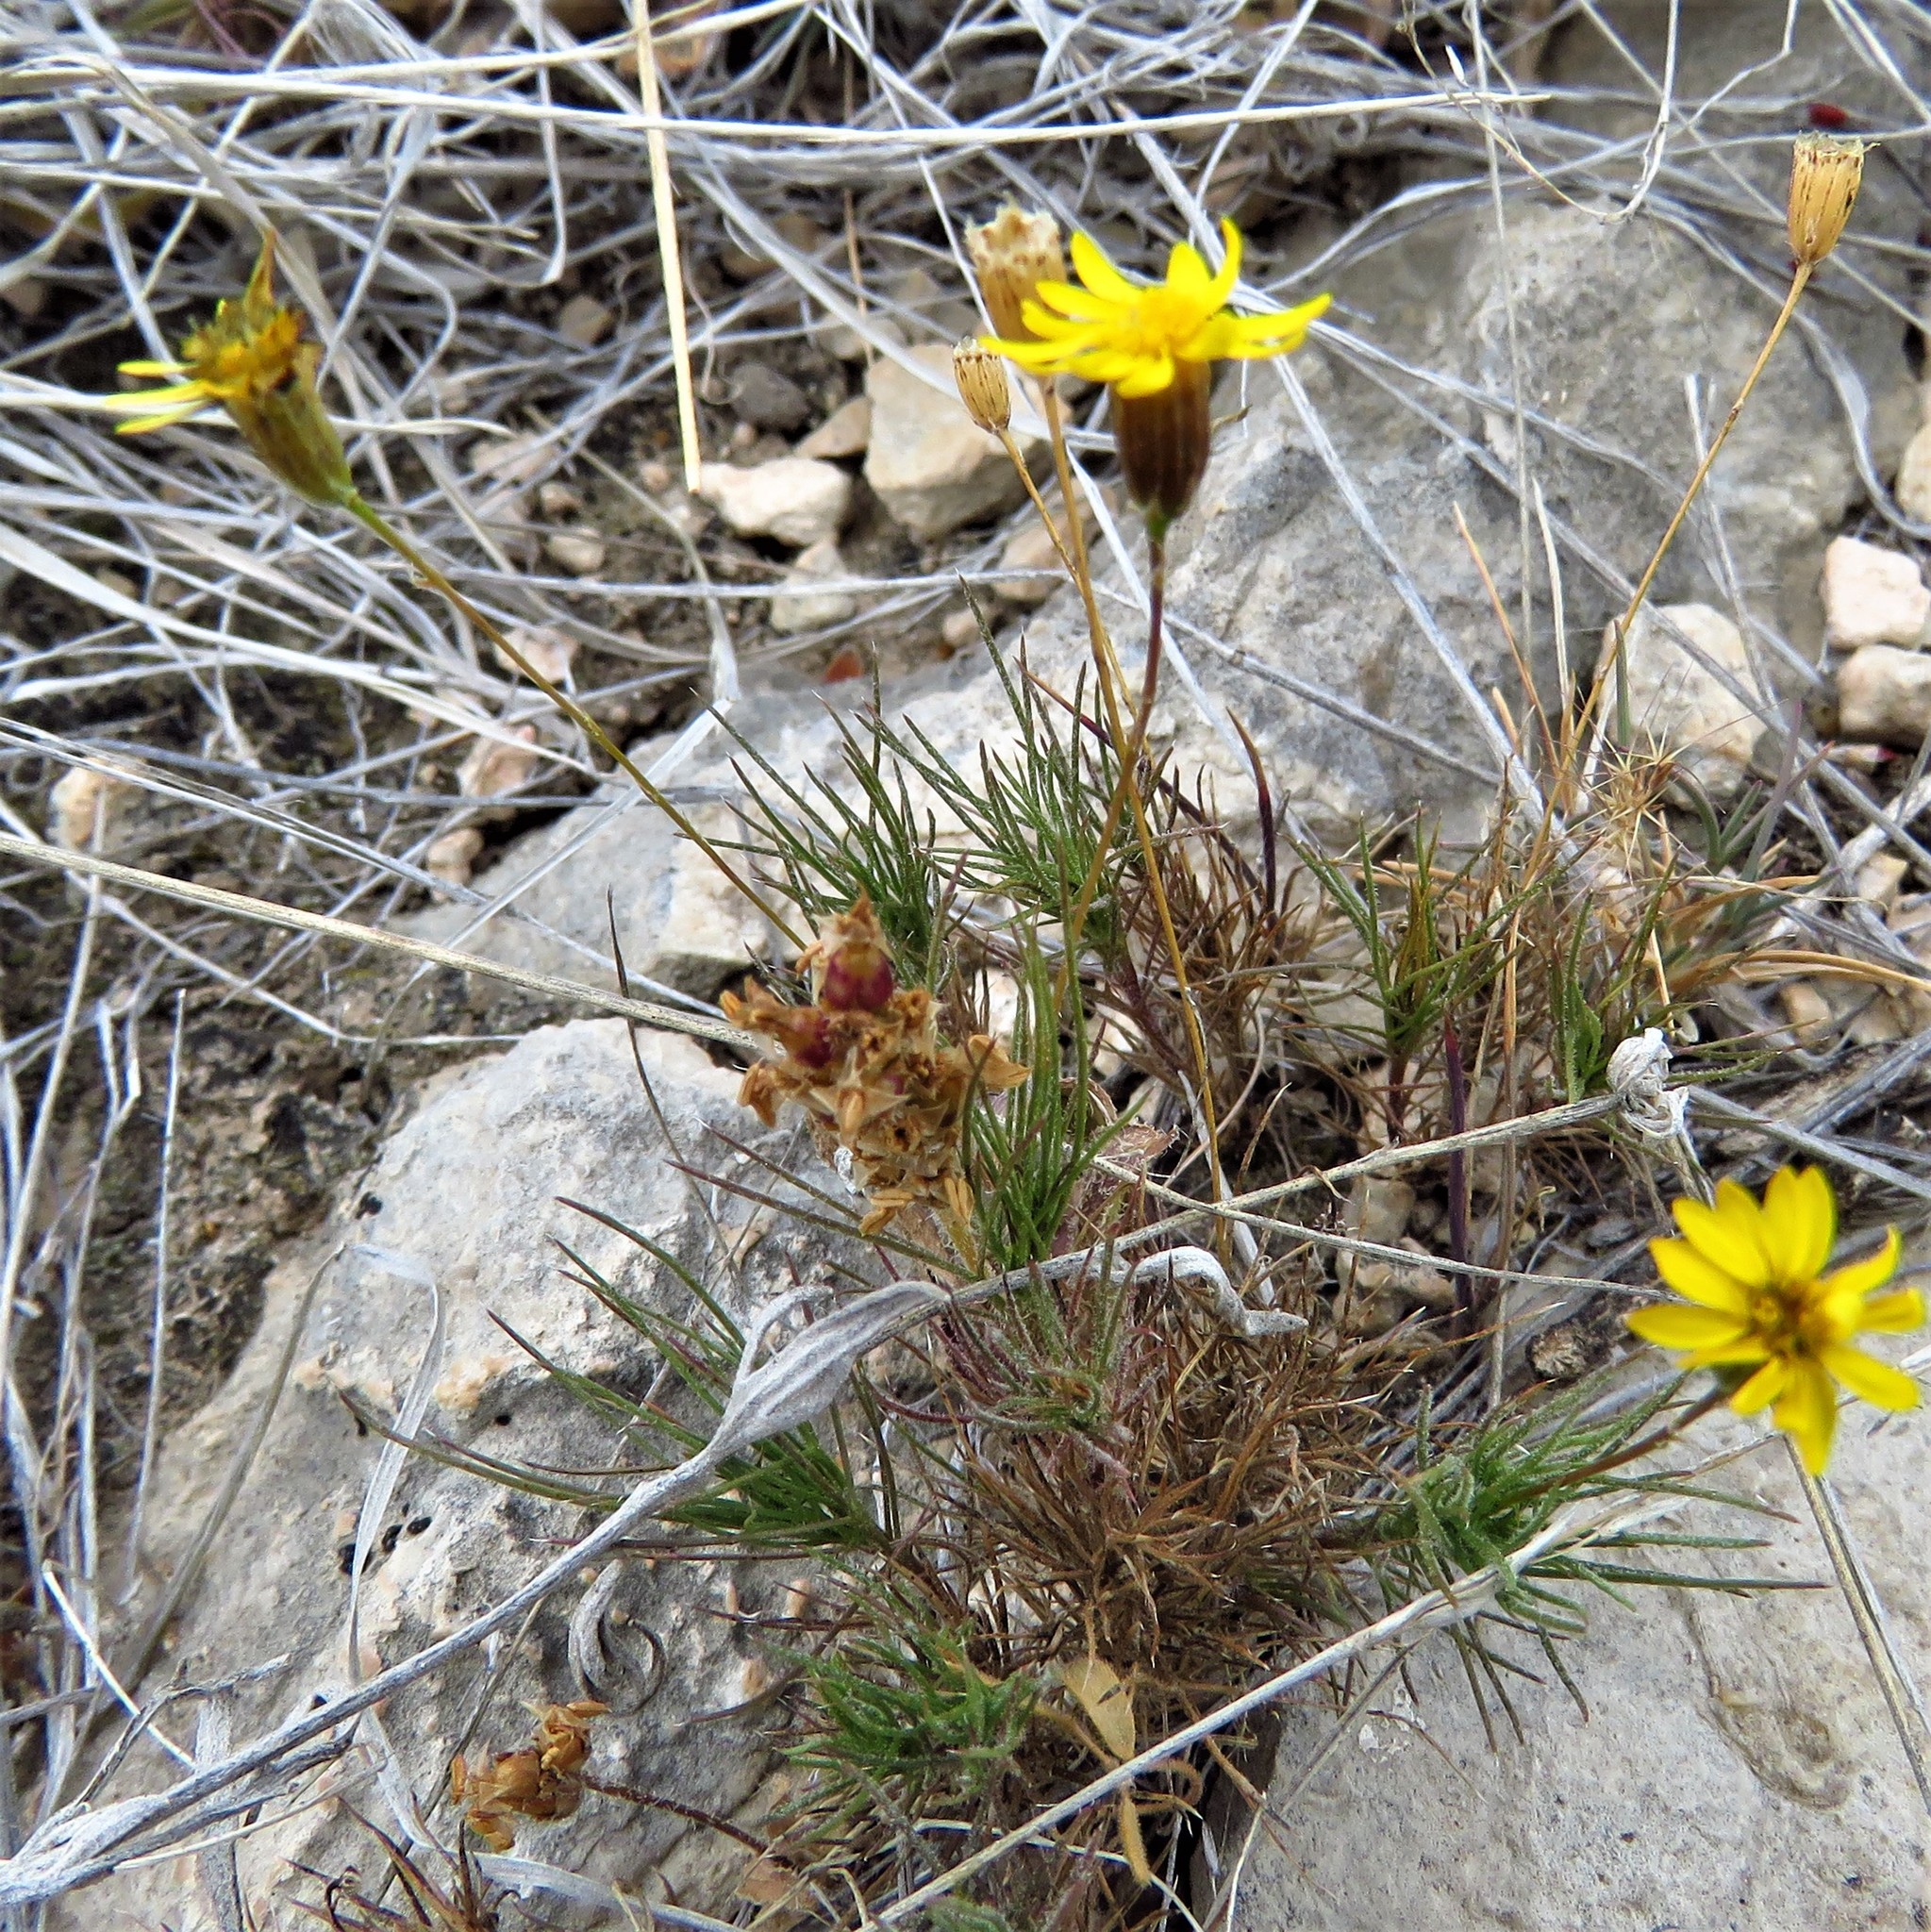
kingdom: Plantae
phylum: Tracheophyta
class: Magnoliopsida
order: Asterales
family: Asteraceae
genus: Thymophylla
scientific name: Thymophylla pentachaeta
